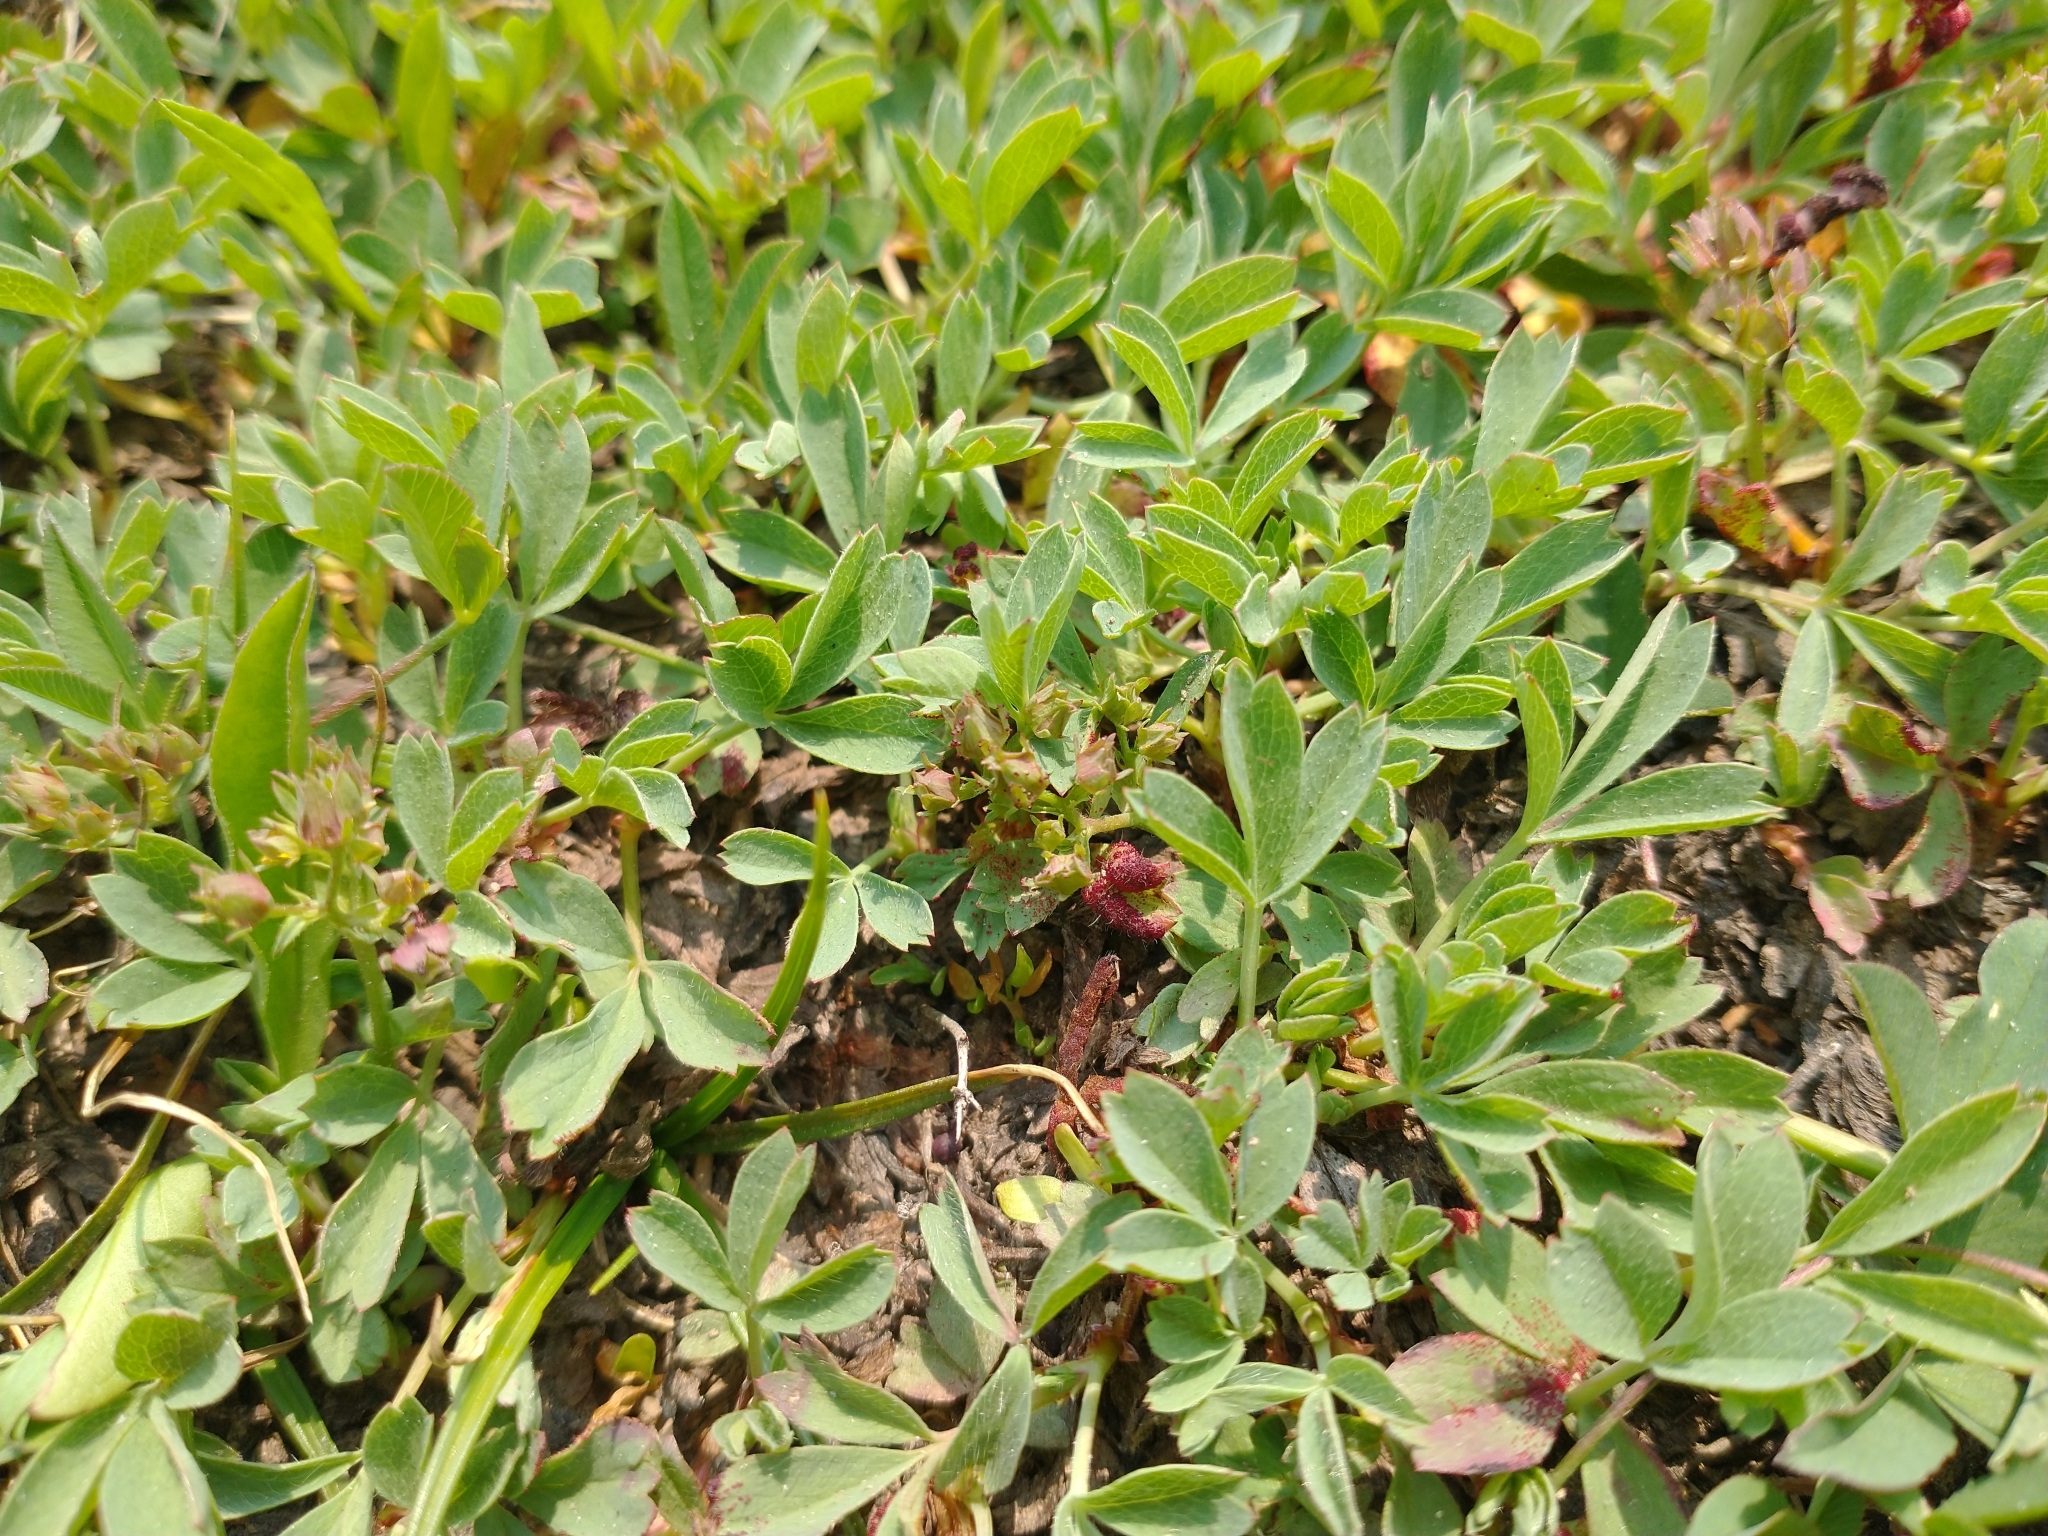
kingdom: Plantae
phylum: Tracheophyta
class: Magnoliopsida
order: Fabales
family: Fabaceae
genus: Trifolium
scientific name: Trifolium longipes
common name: Long-stalk clover
